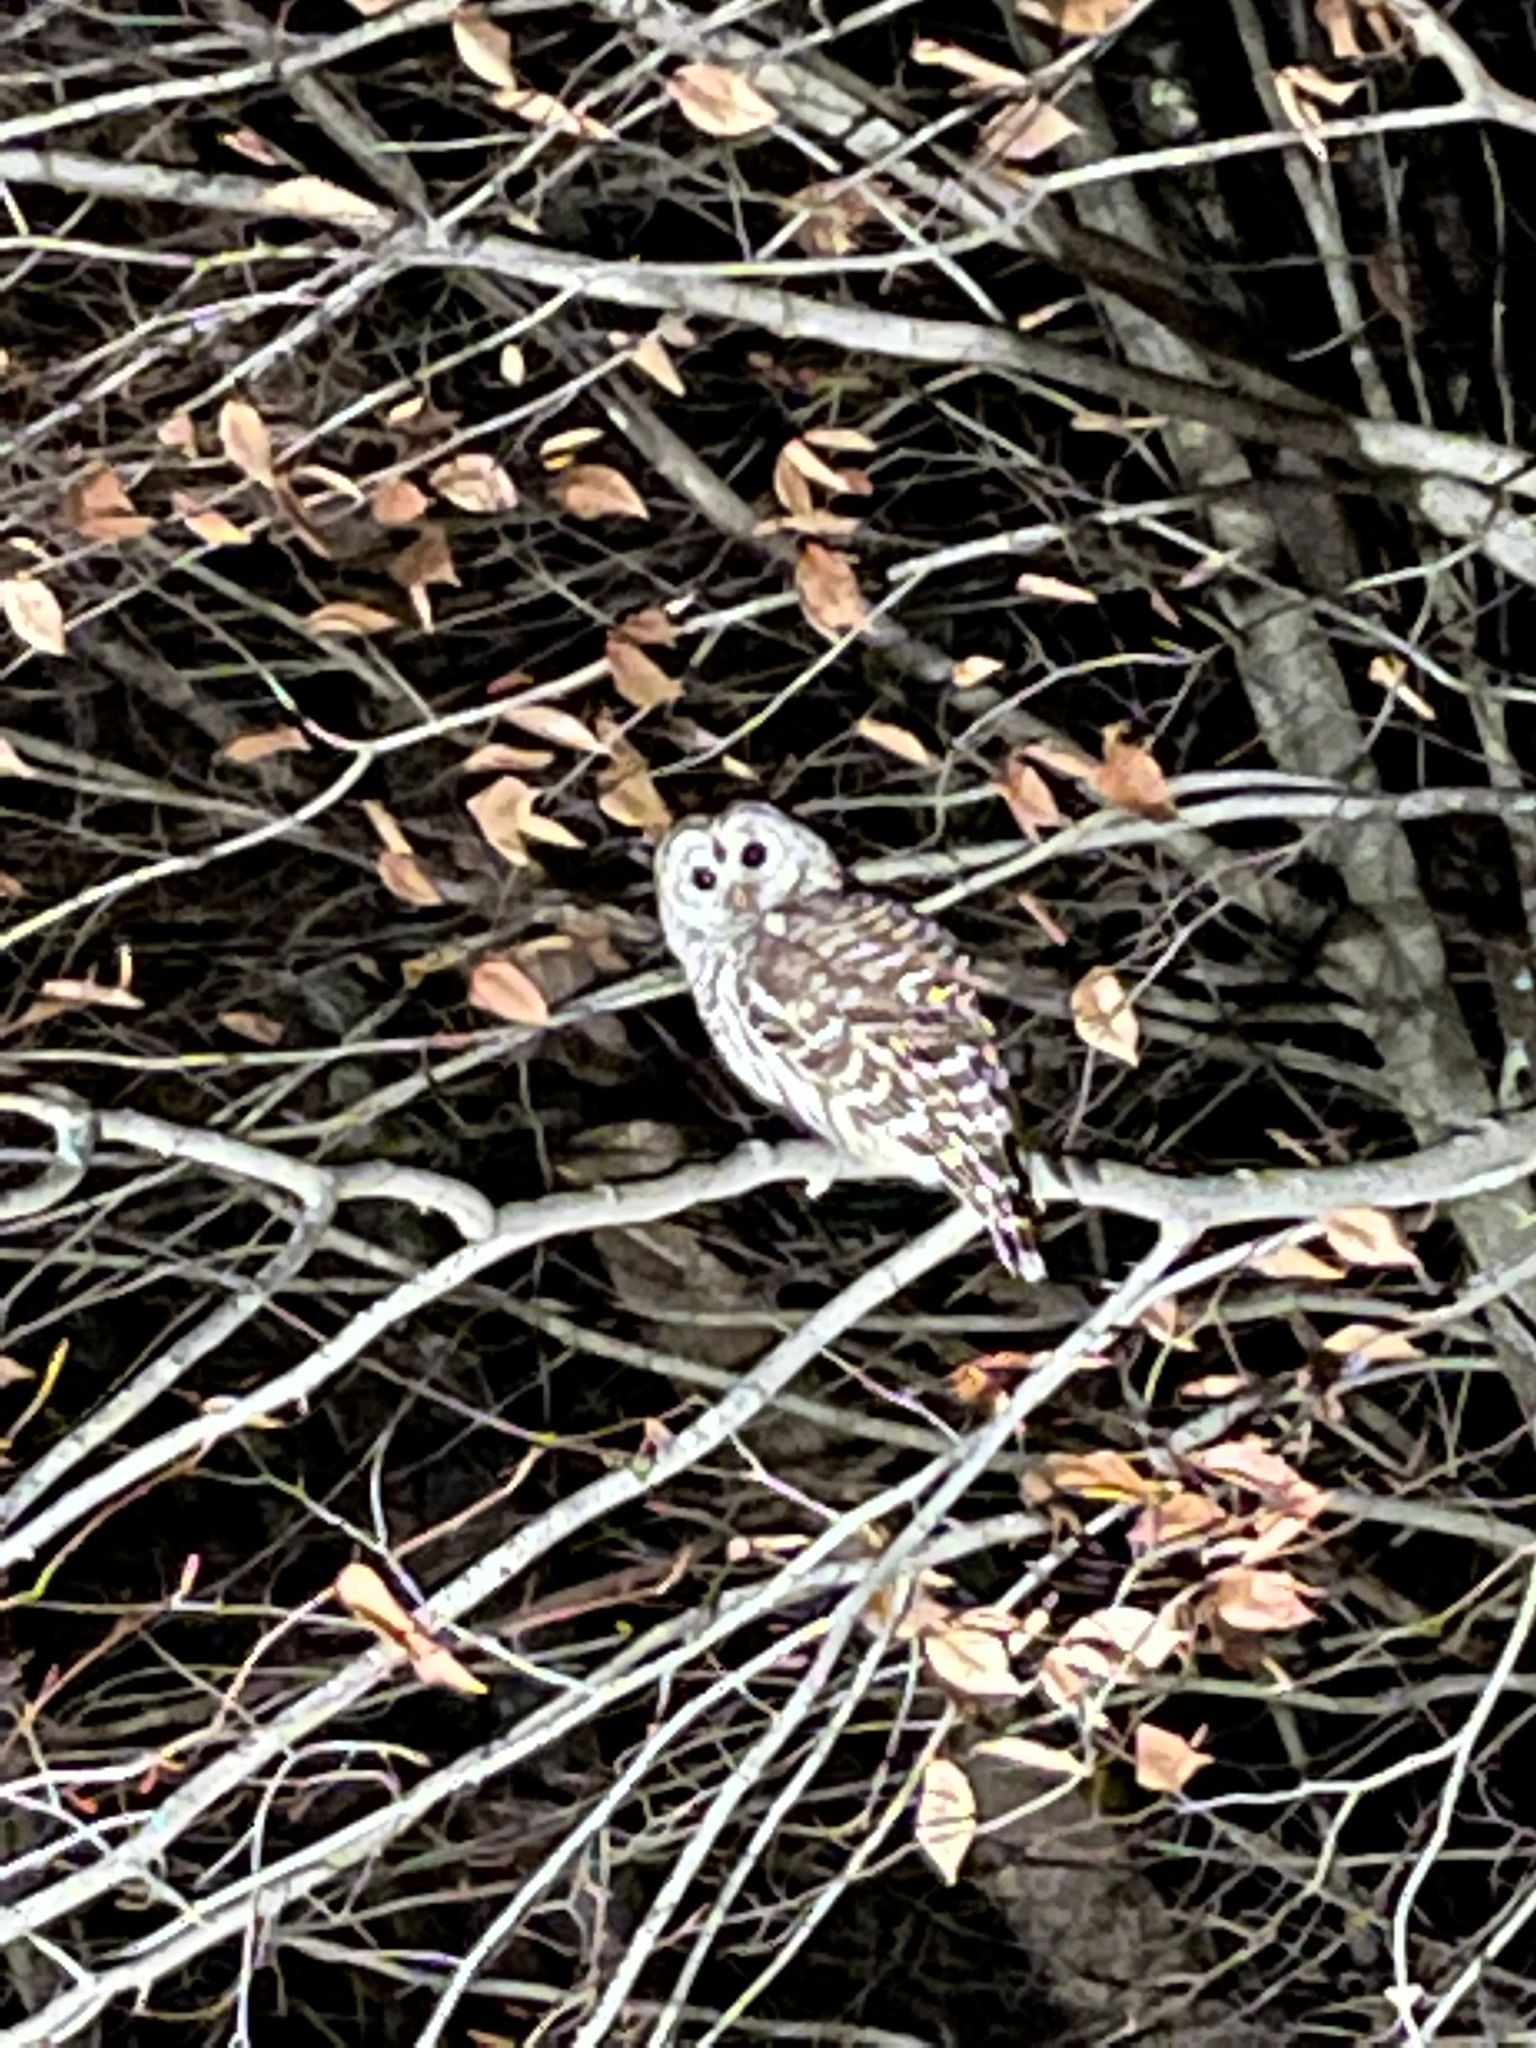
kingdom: Animalia
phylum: Chordata
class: Aves
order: Strigiformes
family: Strigidae
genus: Strix
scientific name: Strix varia
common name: Barred owl
